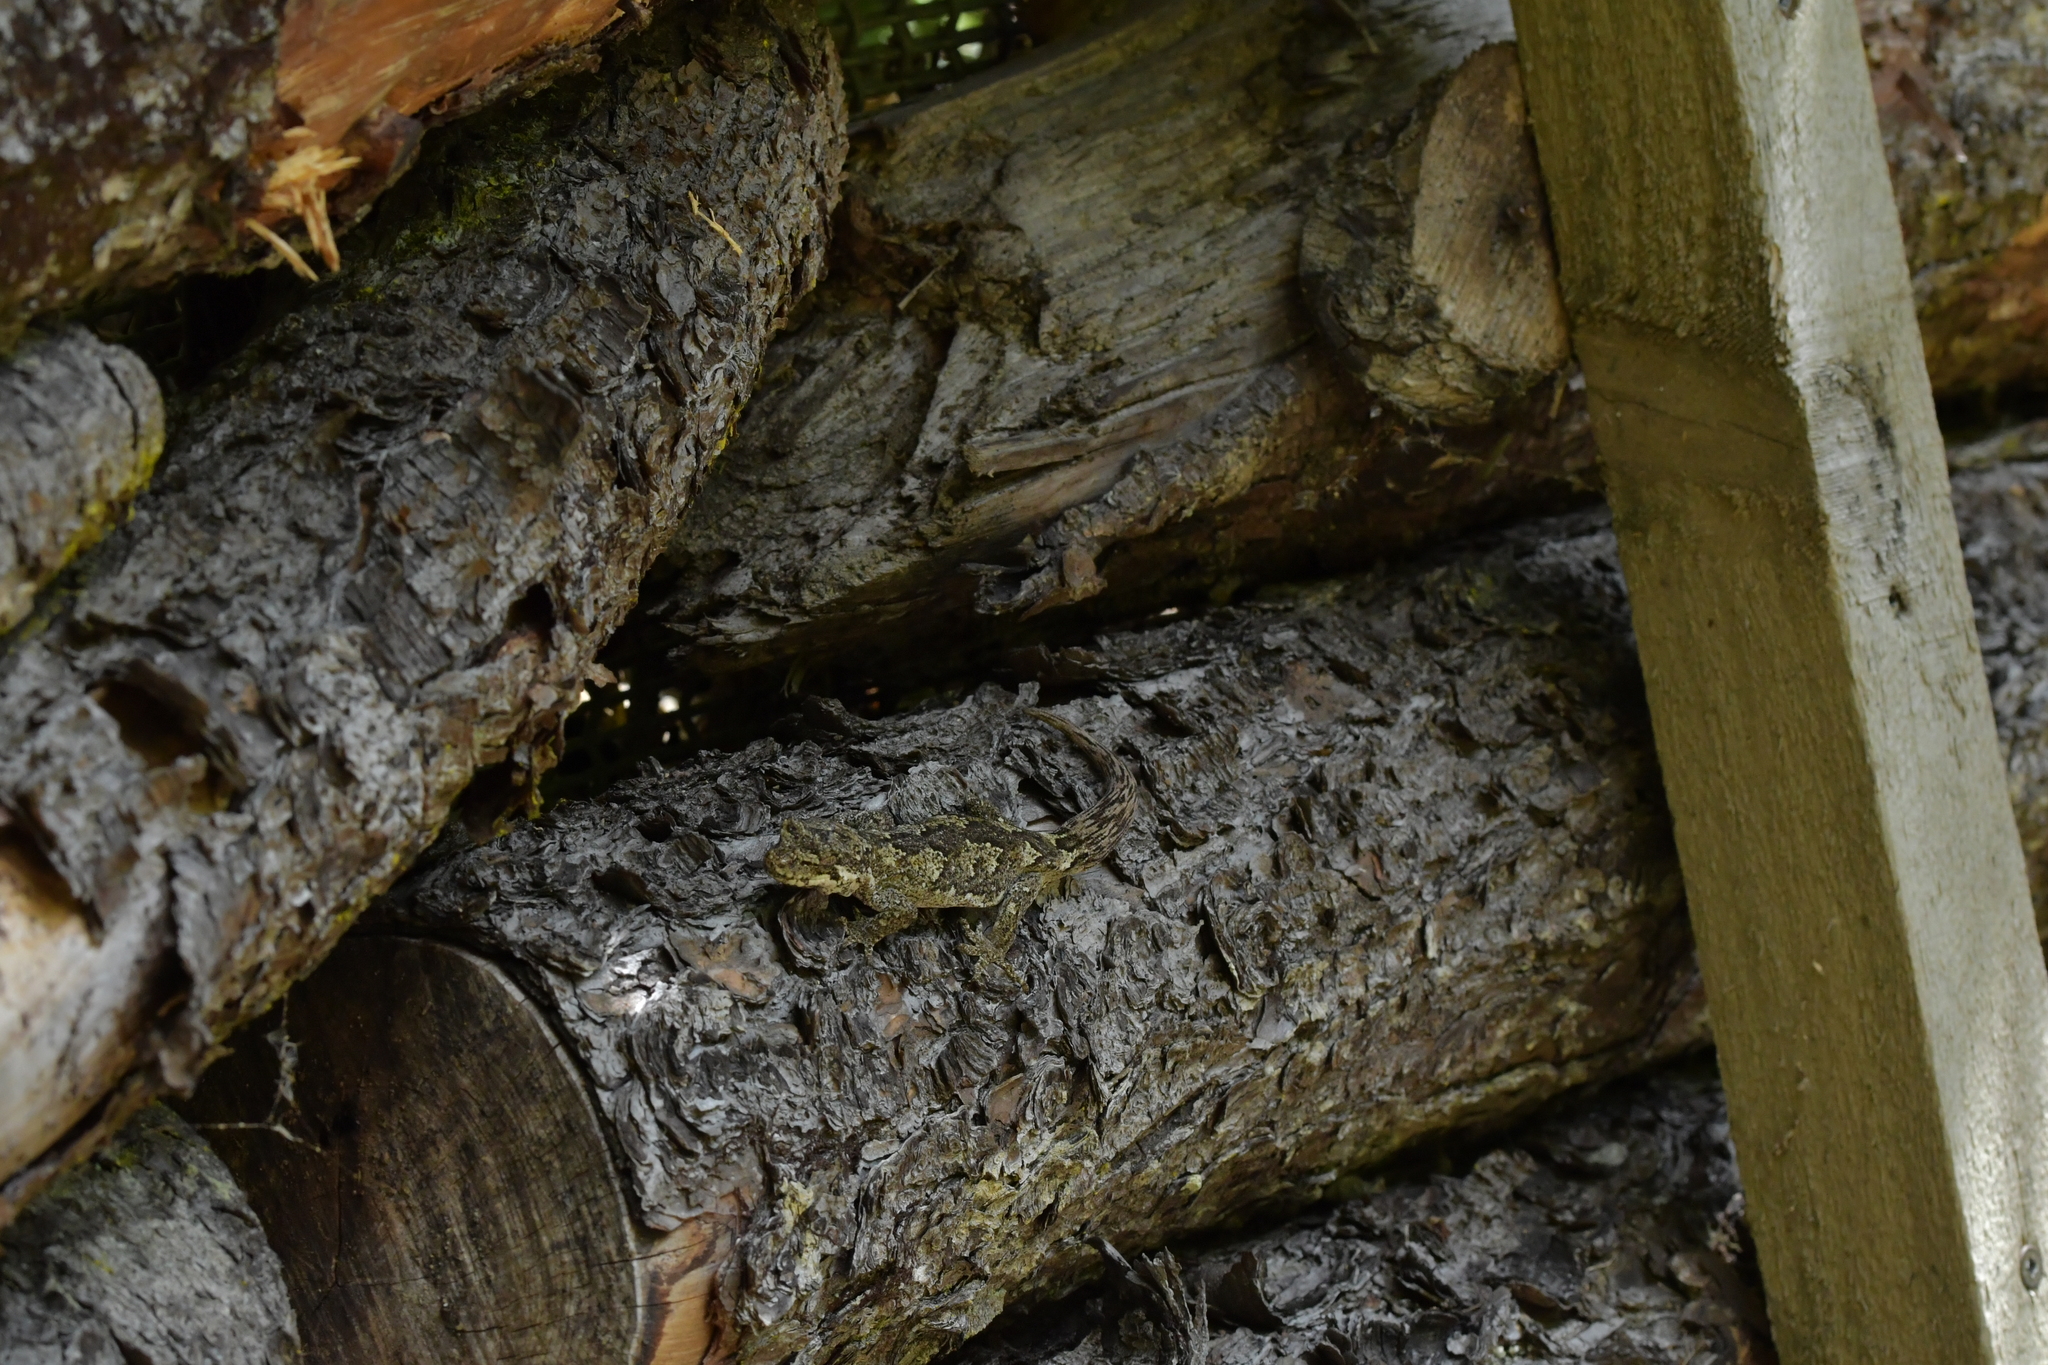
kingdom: Animalia
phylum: Chordata
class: Squamata
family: Diplodactylidae
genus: Mokopirirakau
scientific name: Mokopirirakau
